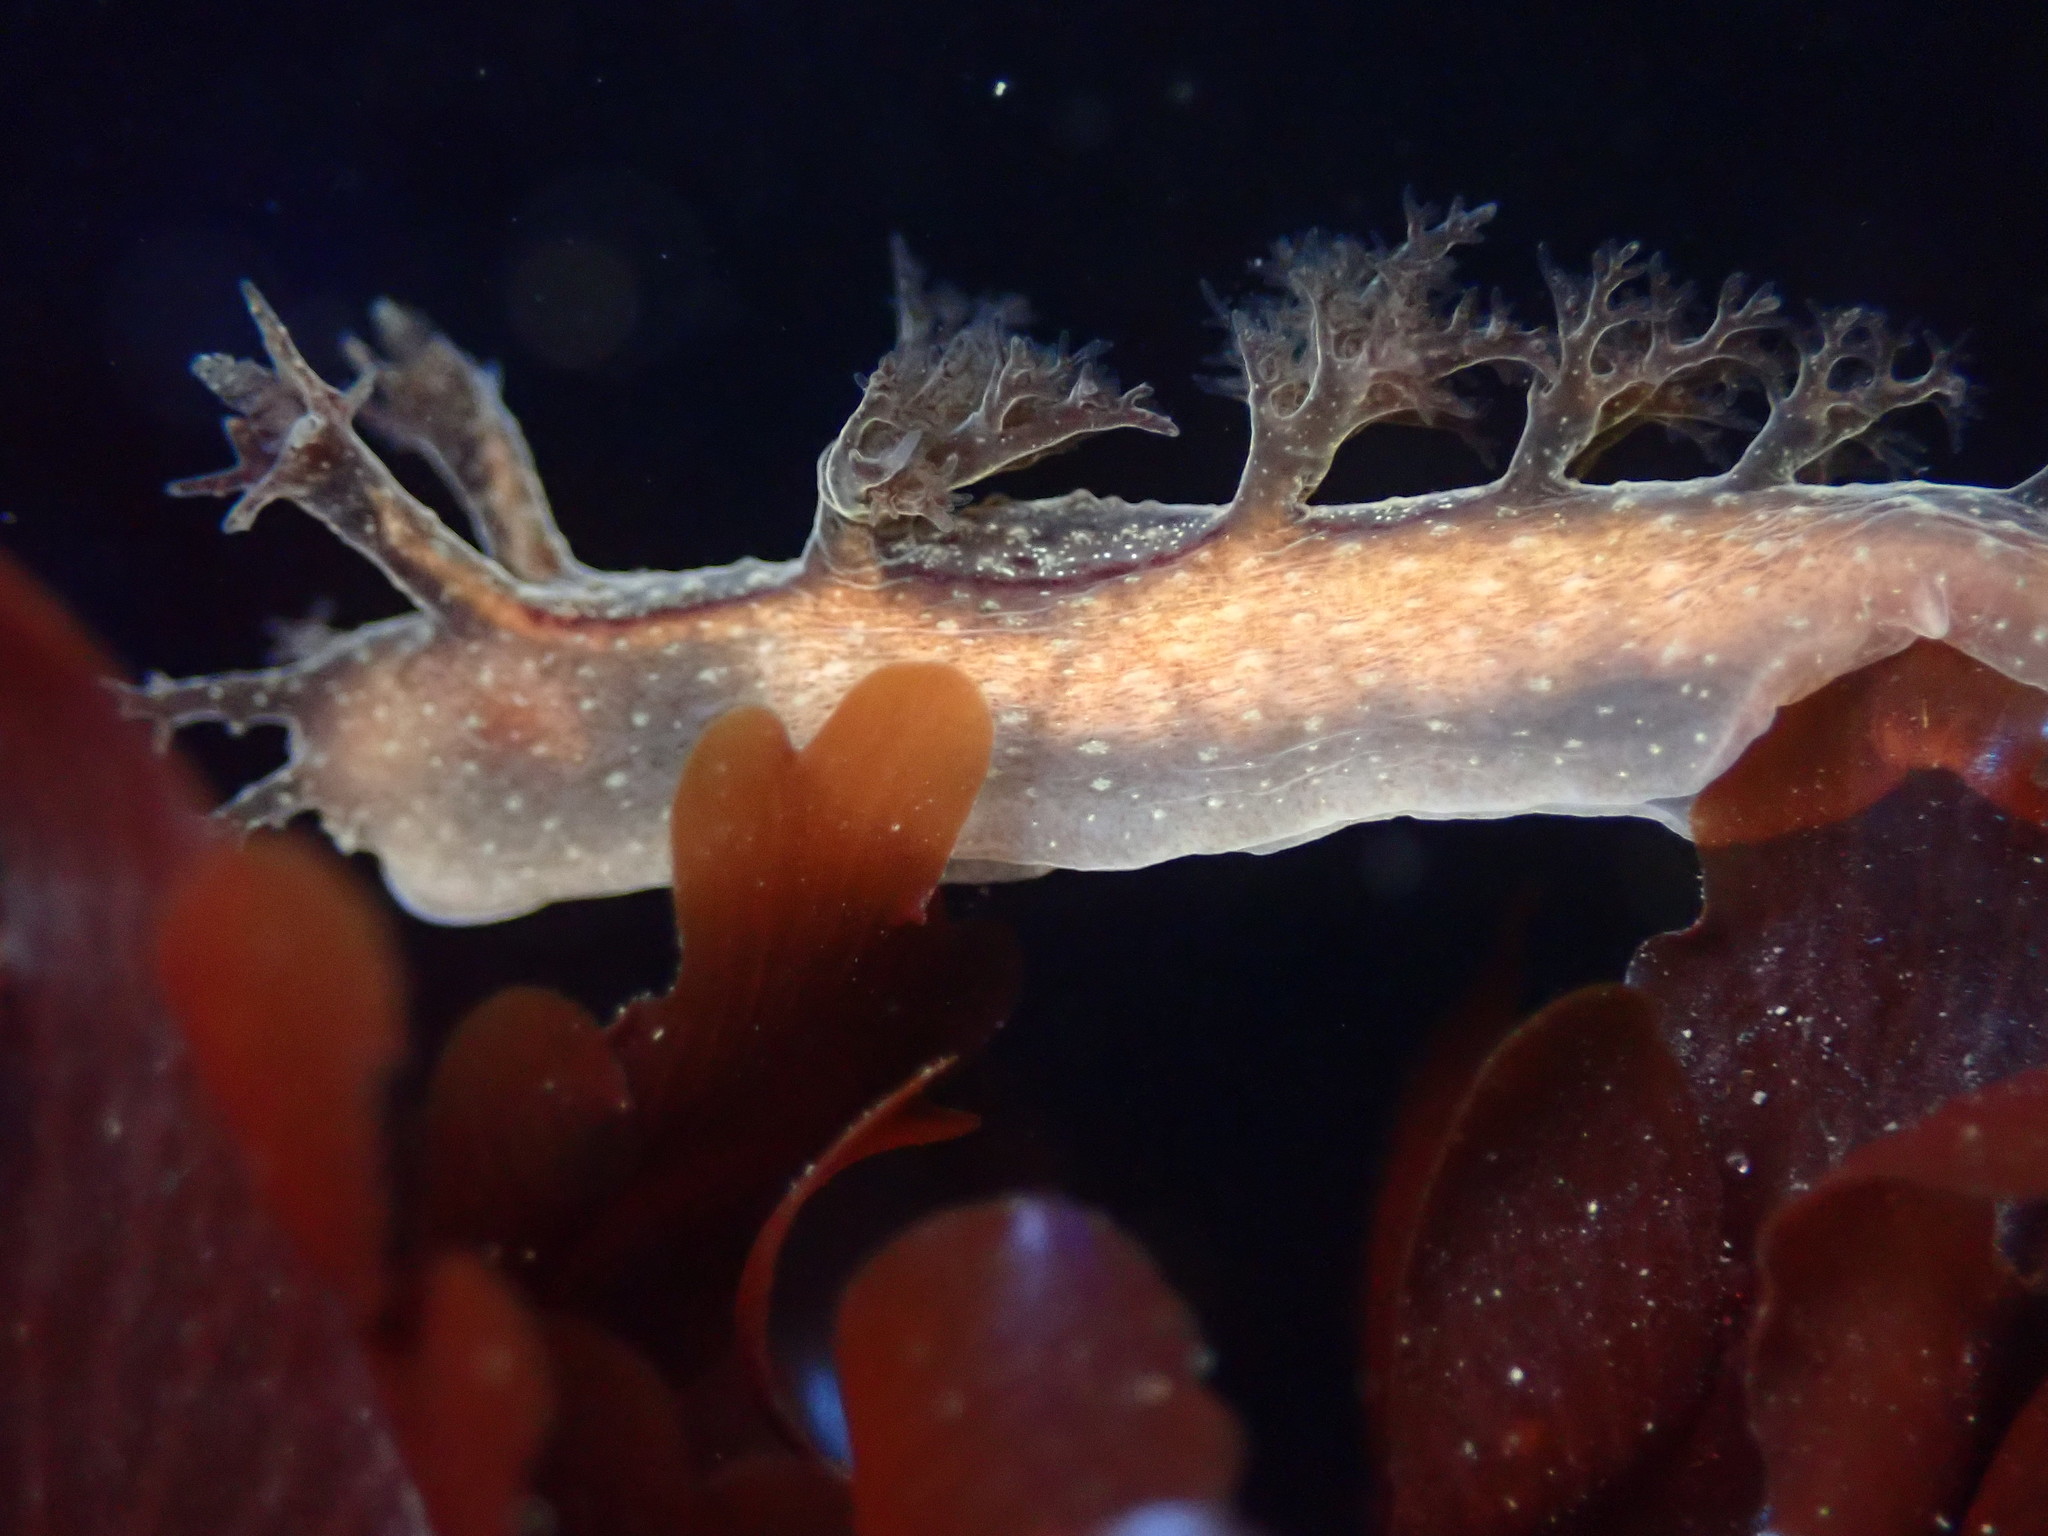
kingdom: Animalia
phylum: Mollusca
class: Gastropoda
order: Nudibranchia
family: Dendronotidae
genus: Dendronotus
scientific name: Dendronotus subramosus
